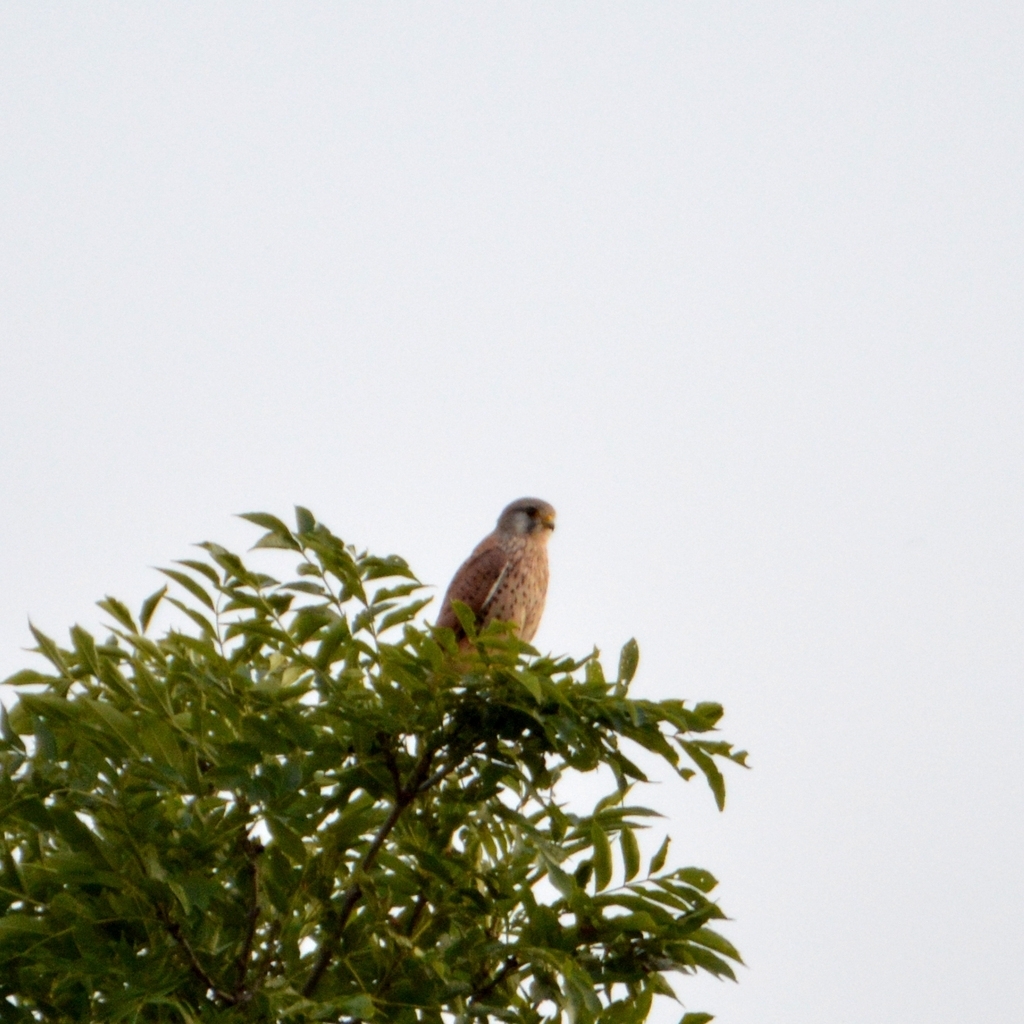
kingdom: Animalia
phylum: Chordata
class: Aves
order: Falconiformes
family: Falconidae
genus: Falco
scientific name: Falco tinnunculus
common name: Common kestrel
